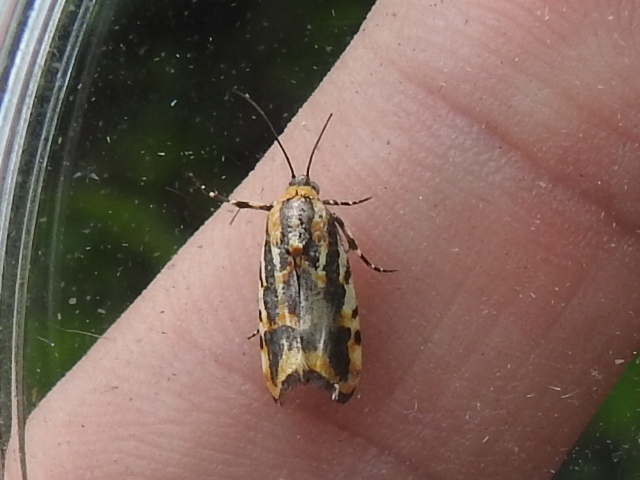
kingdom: Animalia
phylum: Arthropoda
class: Insecta
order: Lepidoptera
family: Noctuidae
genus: Acontia
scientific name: Acontia leo
